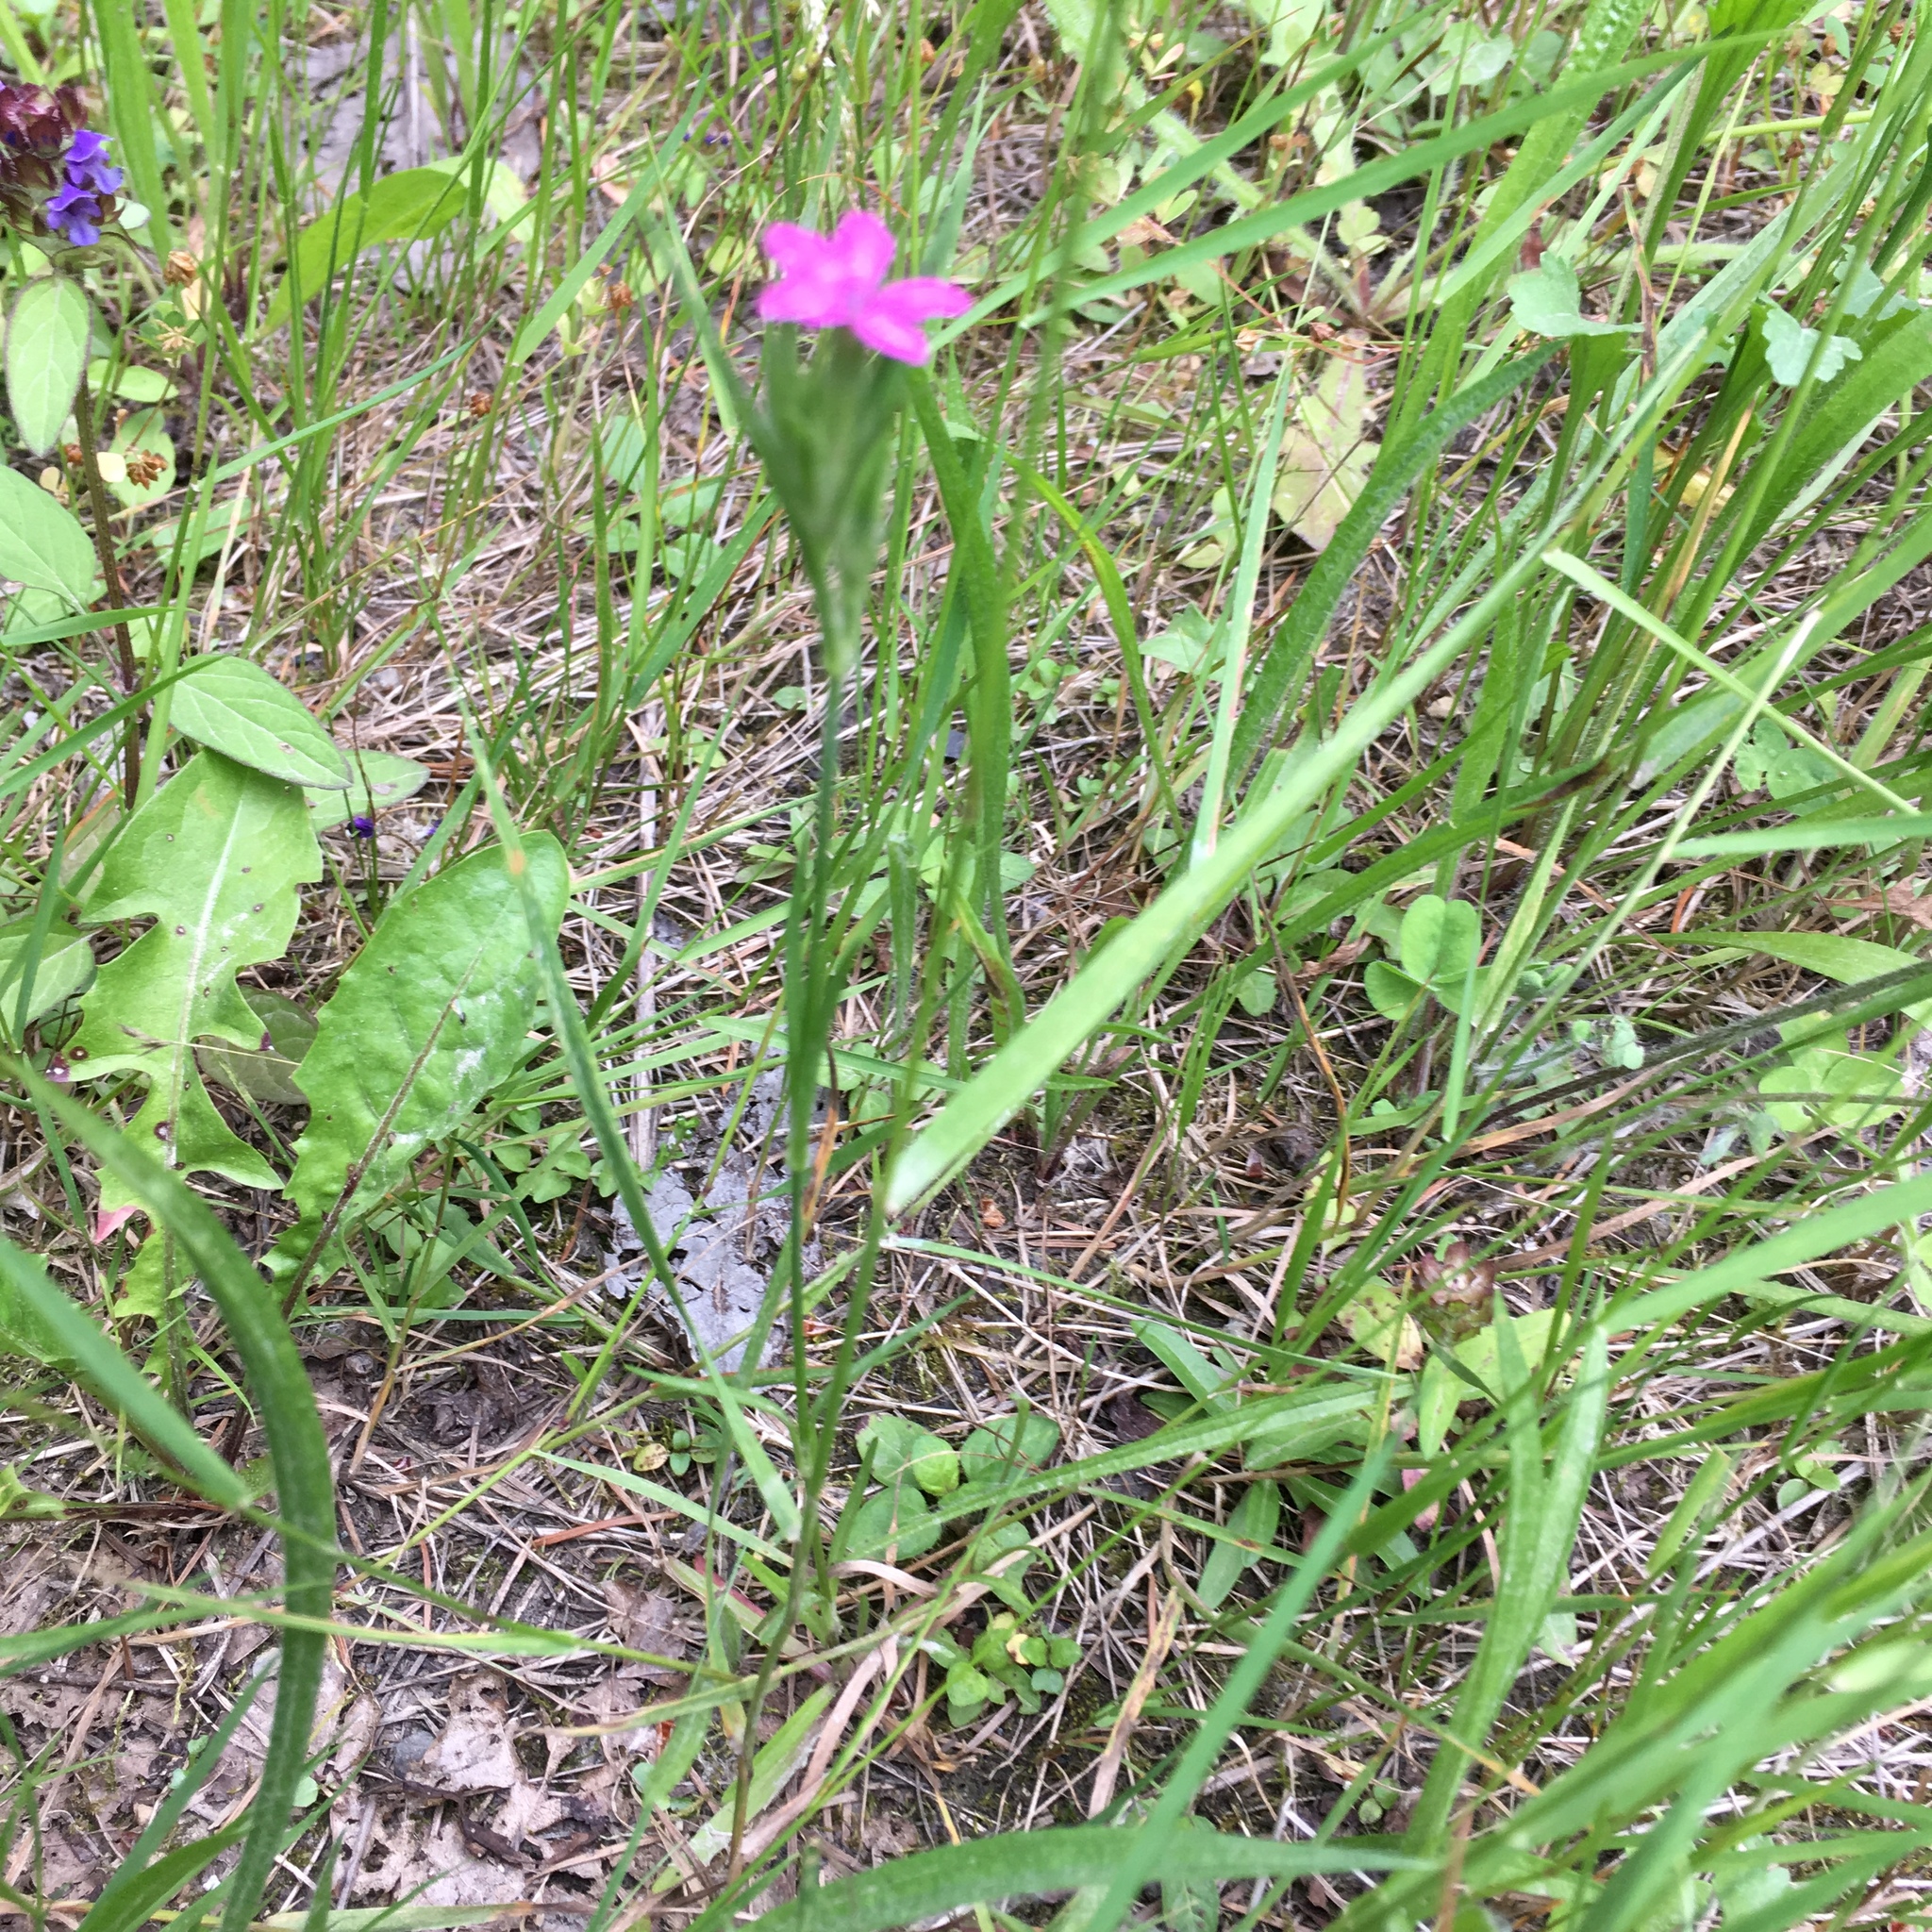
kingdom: Plantae
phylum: Tracheophyta
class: Magnoliopsida
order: Caryophyllales
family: Caryophyllaceae
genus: Dianthus
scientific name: Dianthus armeria
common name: Deptford pink
